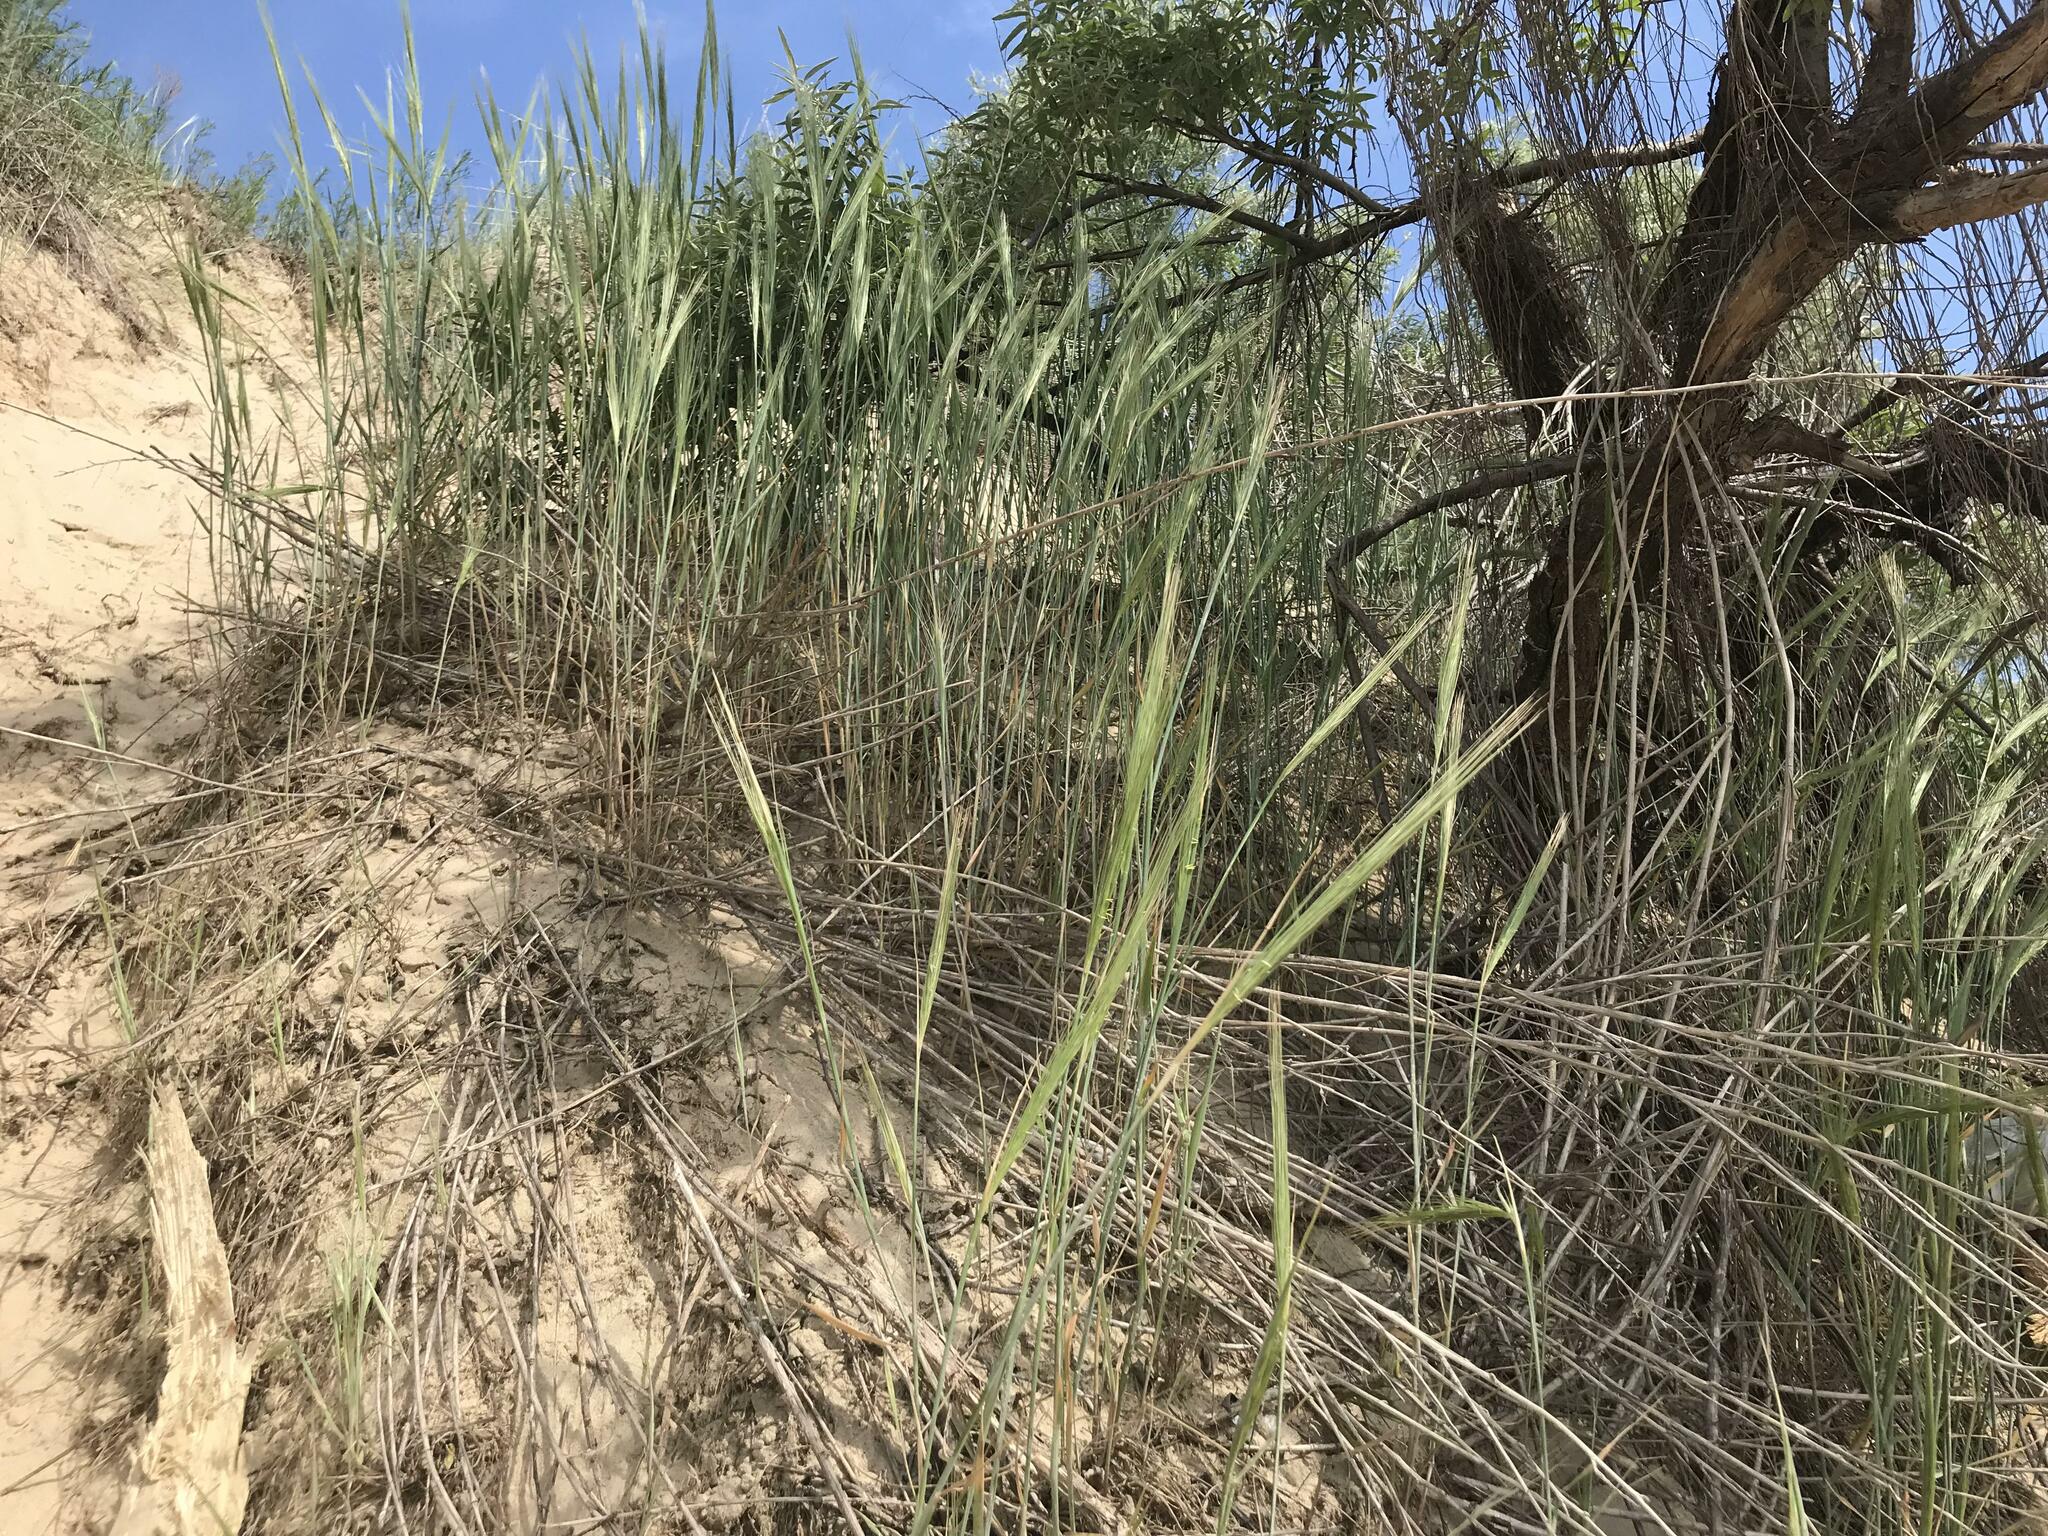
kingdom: Plantae
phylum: Tracheophyta
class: Liliopsida
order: Poales
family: Poaceae
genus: Leymus
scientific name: Leymus racemosus
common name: Mammoth wildrye
